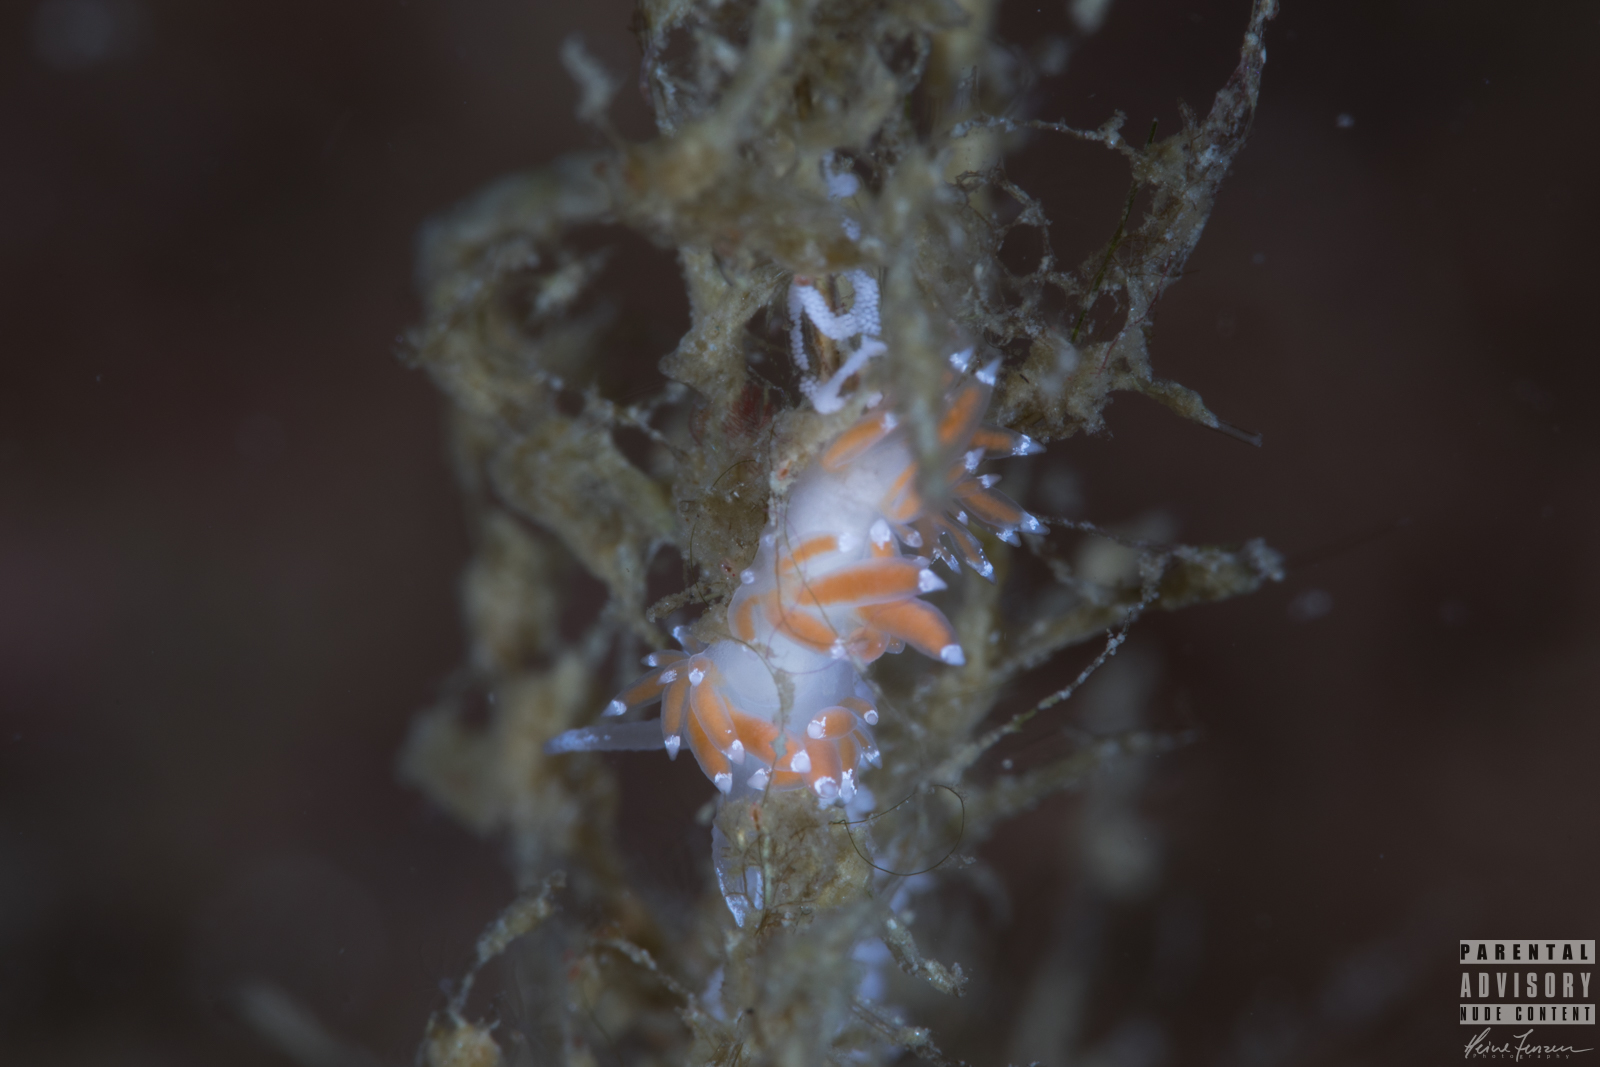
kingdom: Animalia
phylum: Mollusca
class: Gastropoda
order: Nudibranchia
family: Coryphellidae
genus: Coryphella
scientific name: Coryphella gracilis
